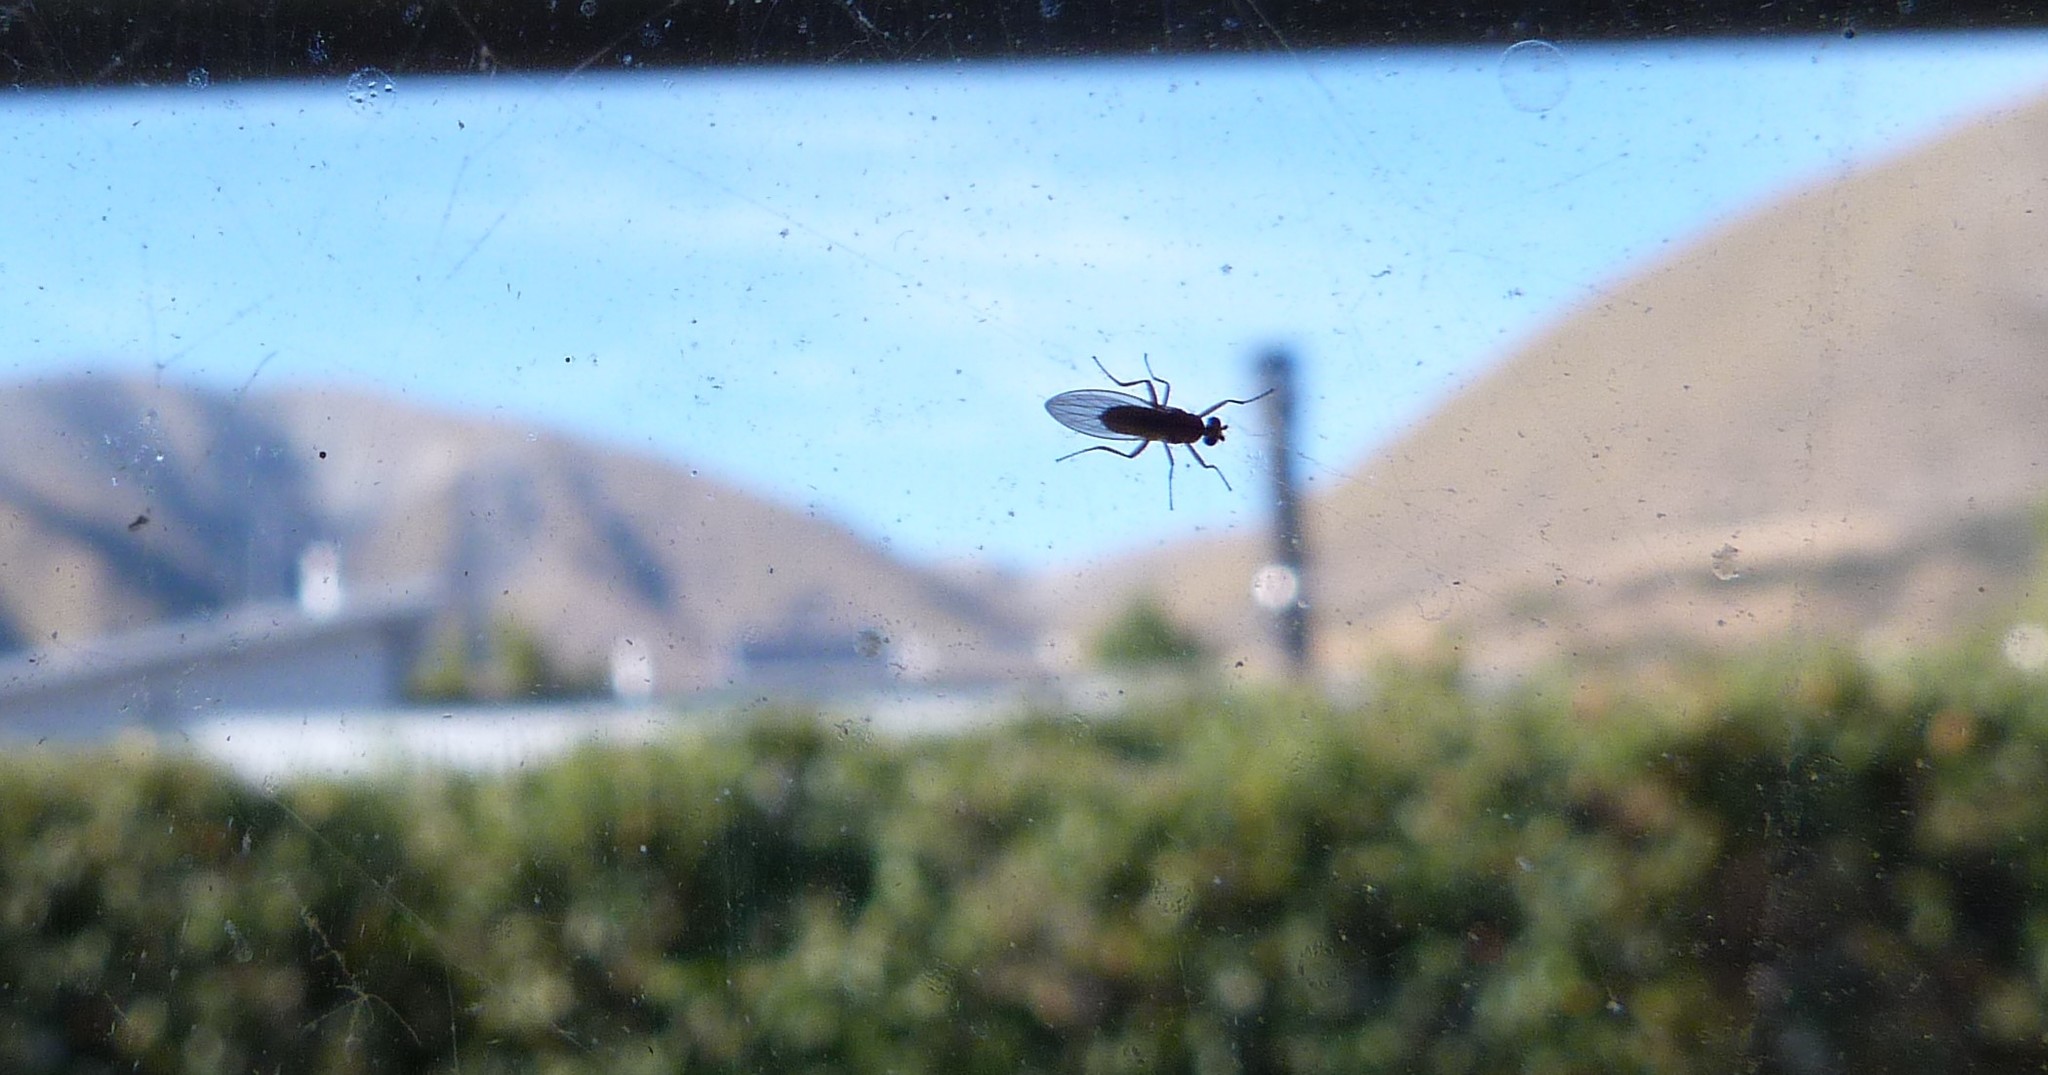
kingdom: Animalia
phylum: Arthropoda
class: Insecta
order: Diptera
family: Lonchopteridae
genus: Lonchoptera
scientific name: Lonchoptera bifurcata
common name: Spear-winged fly
